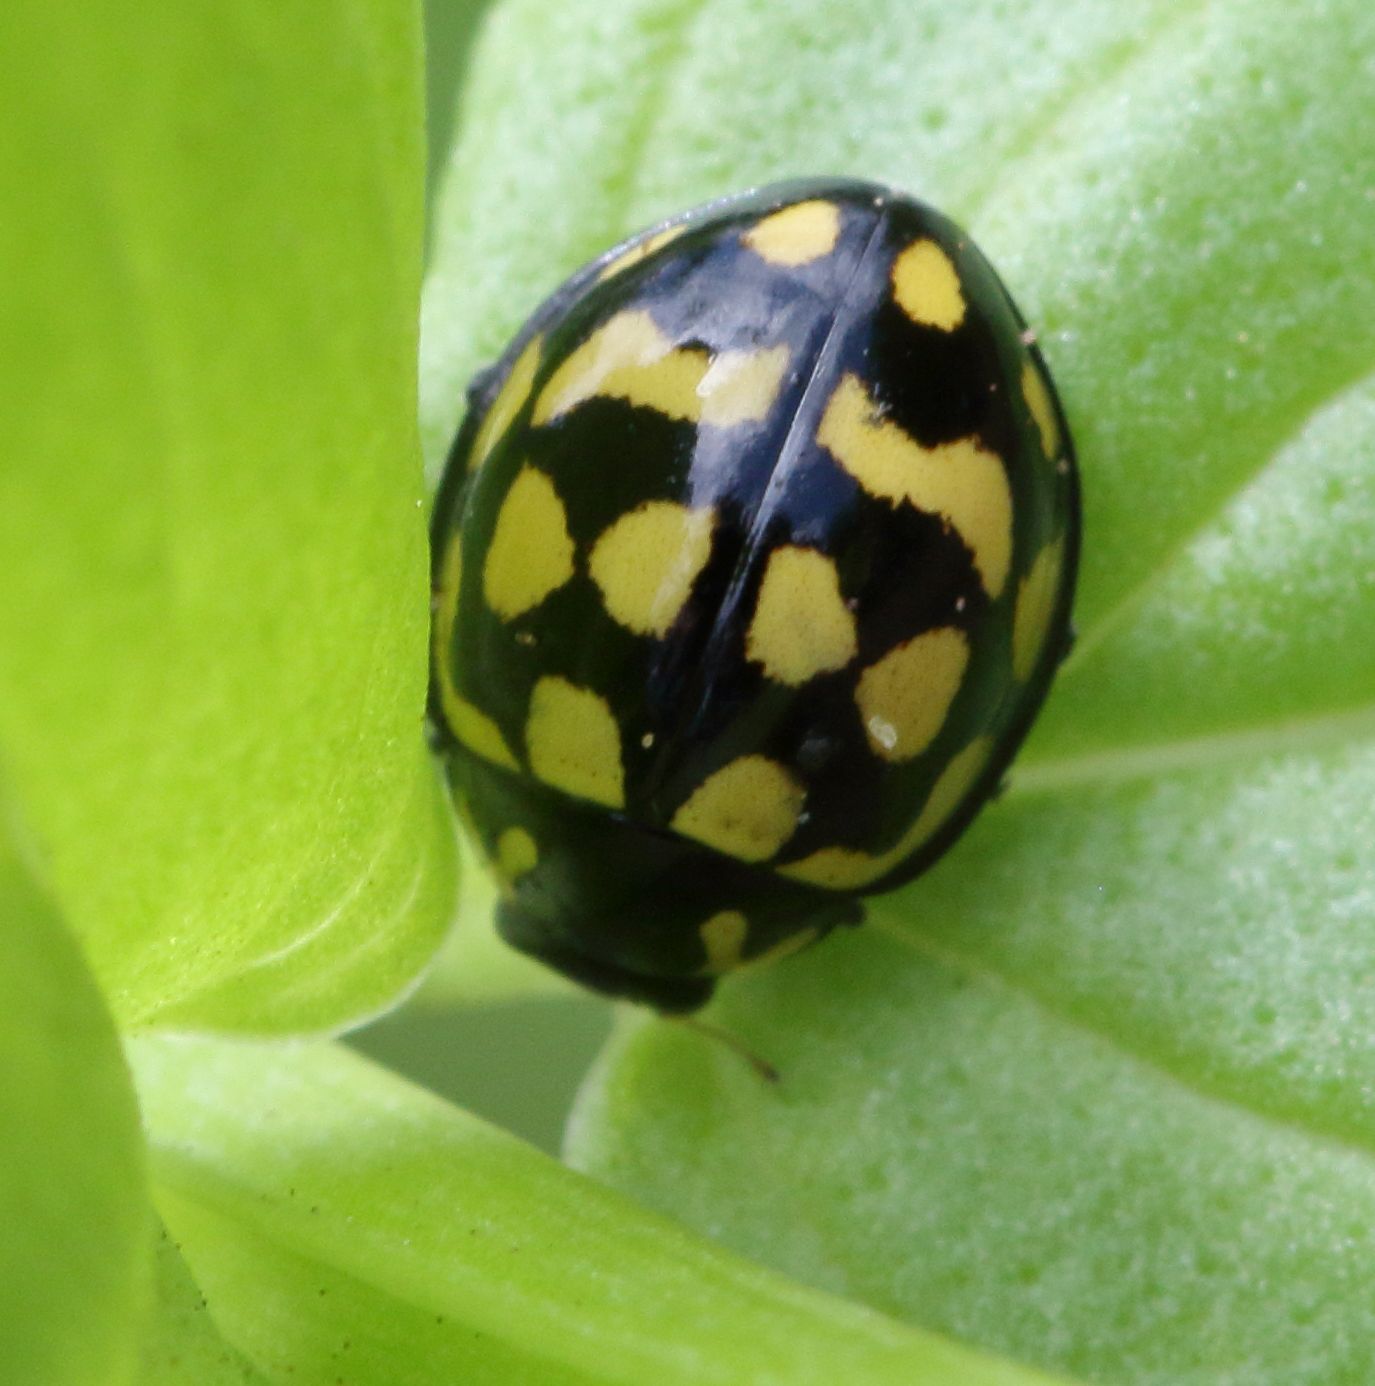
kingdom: Animalia
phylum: Arthropoda
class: Insecta
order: Coleoptera
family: Coccinellidae
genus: Lioadalia
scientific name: Lioadalia
